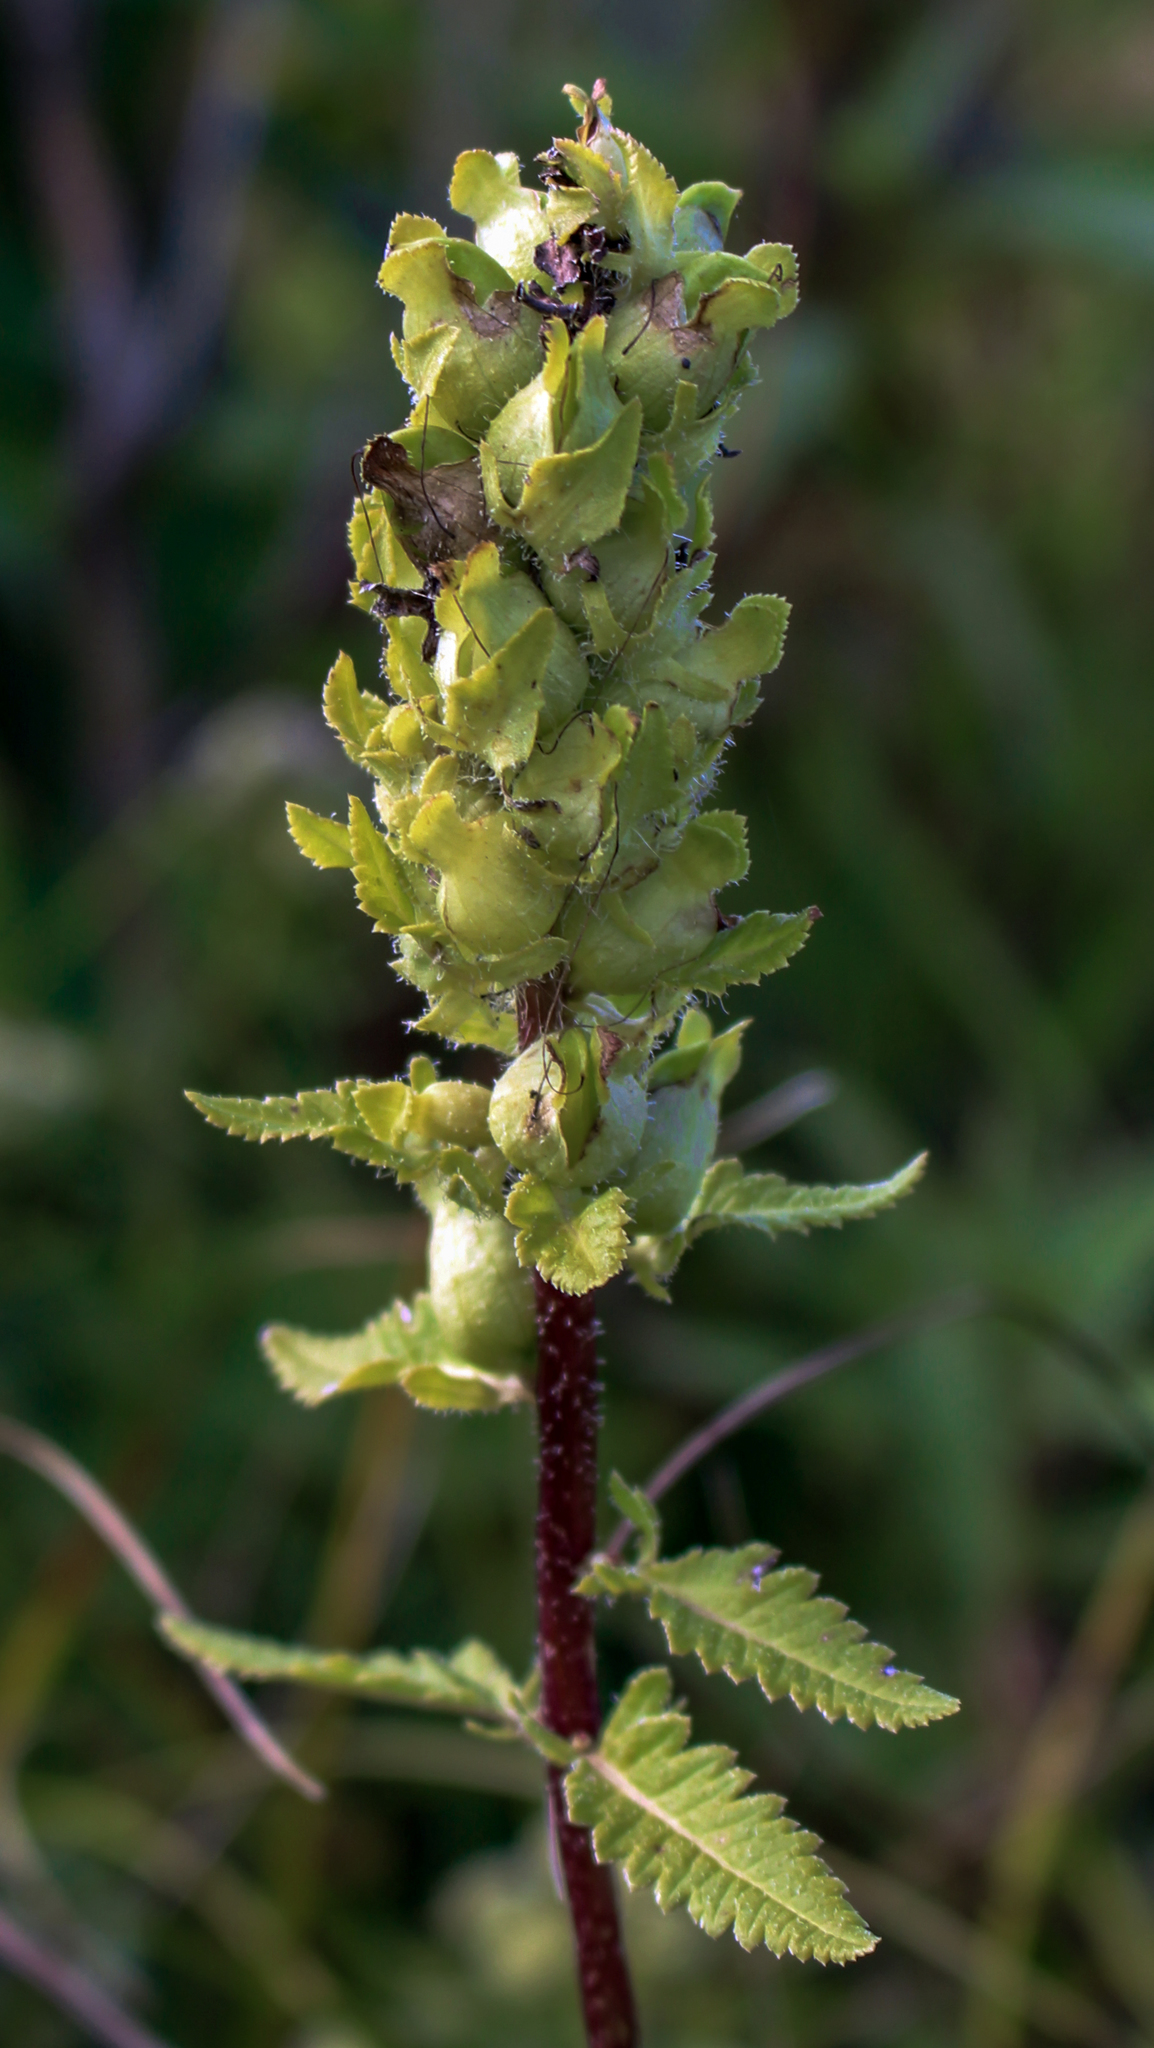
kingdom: Plantae
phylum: Tracheophyta
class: Magnoliopsida
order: Lamiales
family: Orobanchaceae
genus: Pedicularis
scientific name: Pedicularis lanceolata
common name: Swamp lousewort
